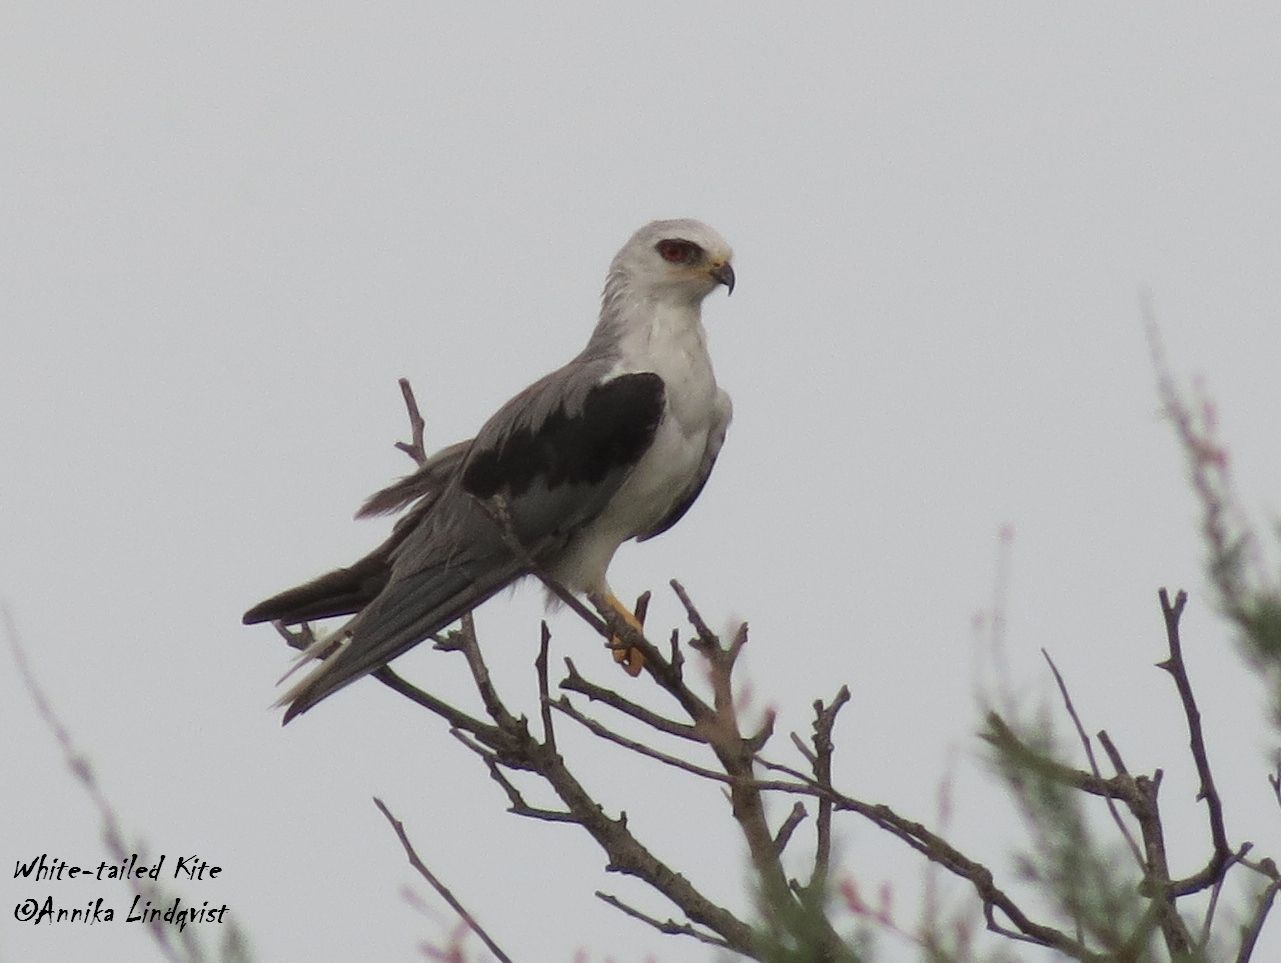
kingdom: Animalia
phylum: Chordata
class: Aves
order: Accipitriformes
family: Accipitridae
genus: Elanus
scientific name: Elanus leucurus
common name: White-tailed kite
